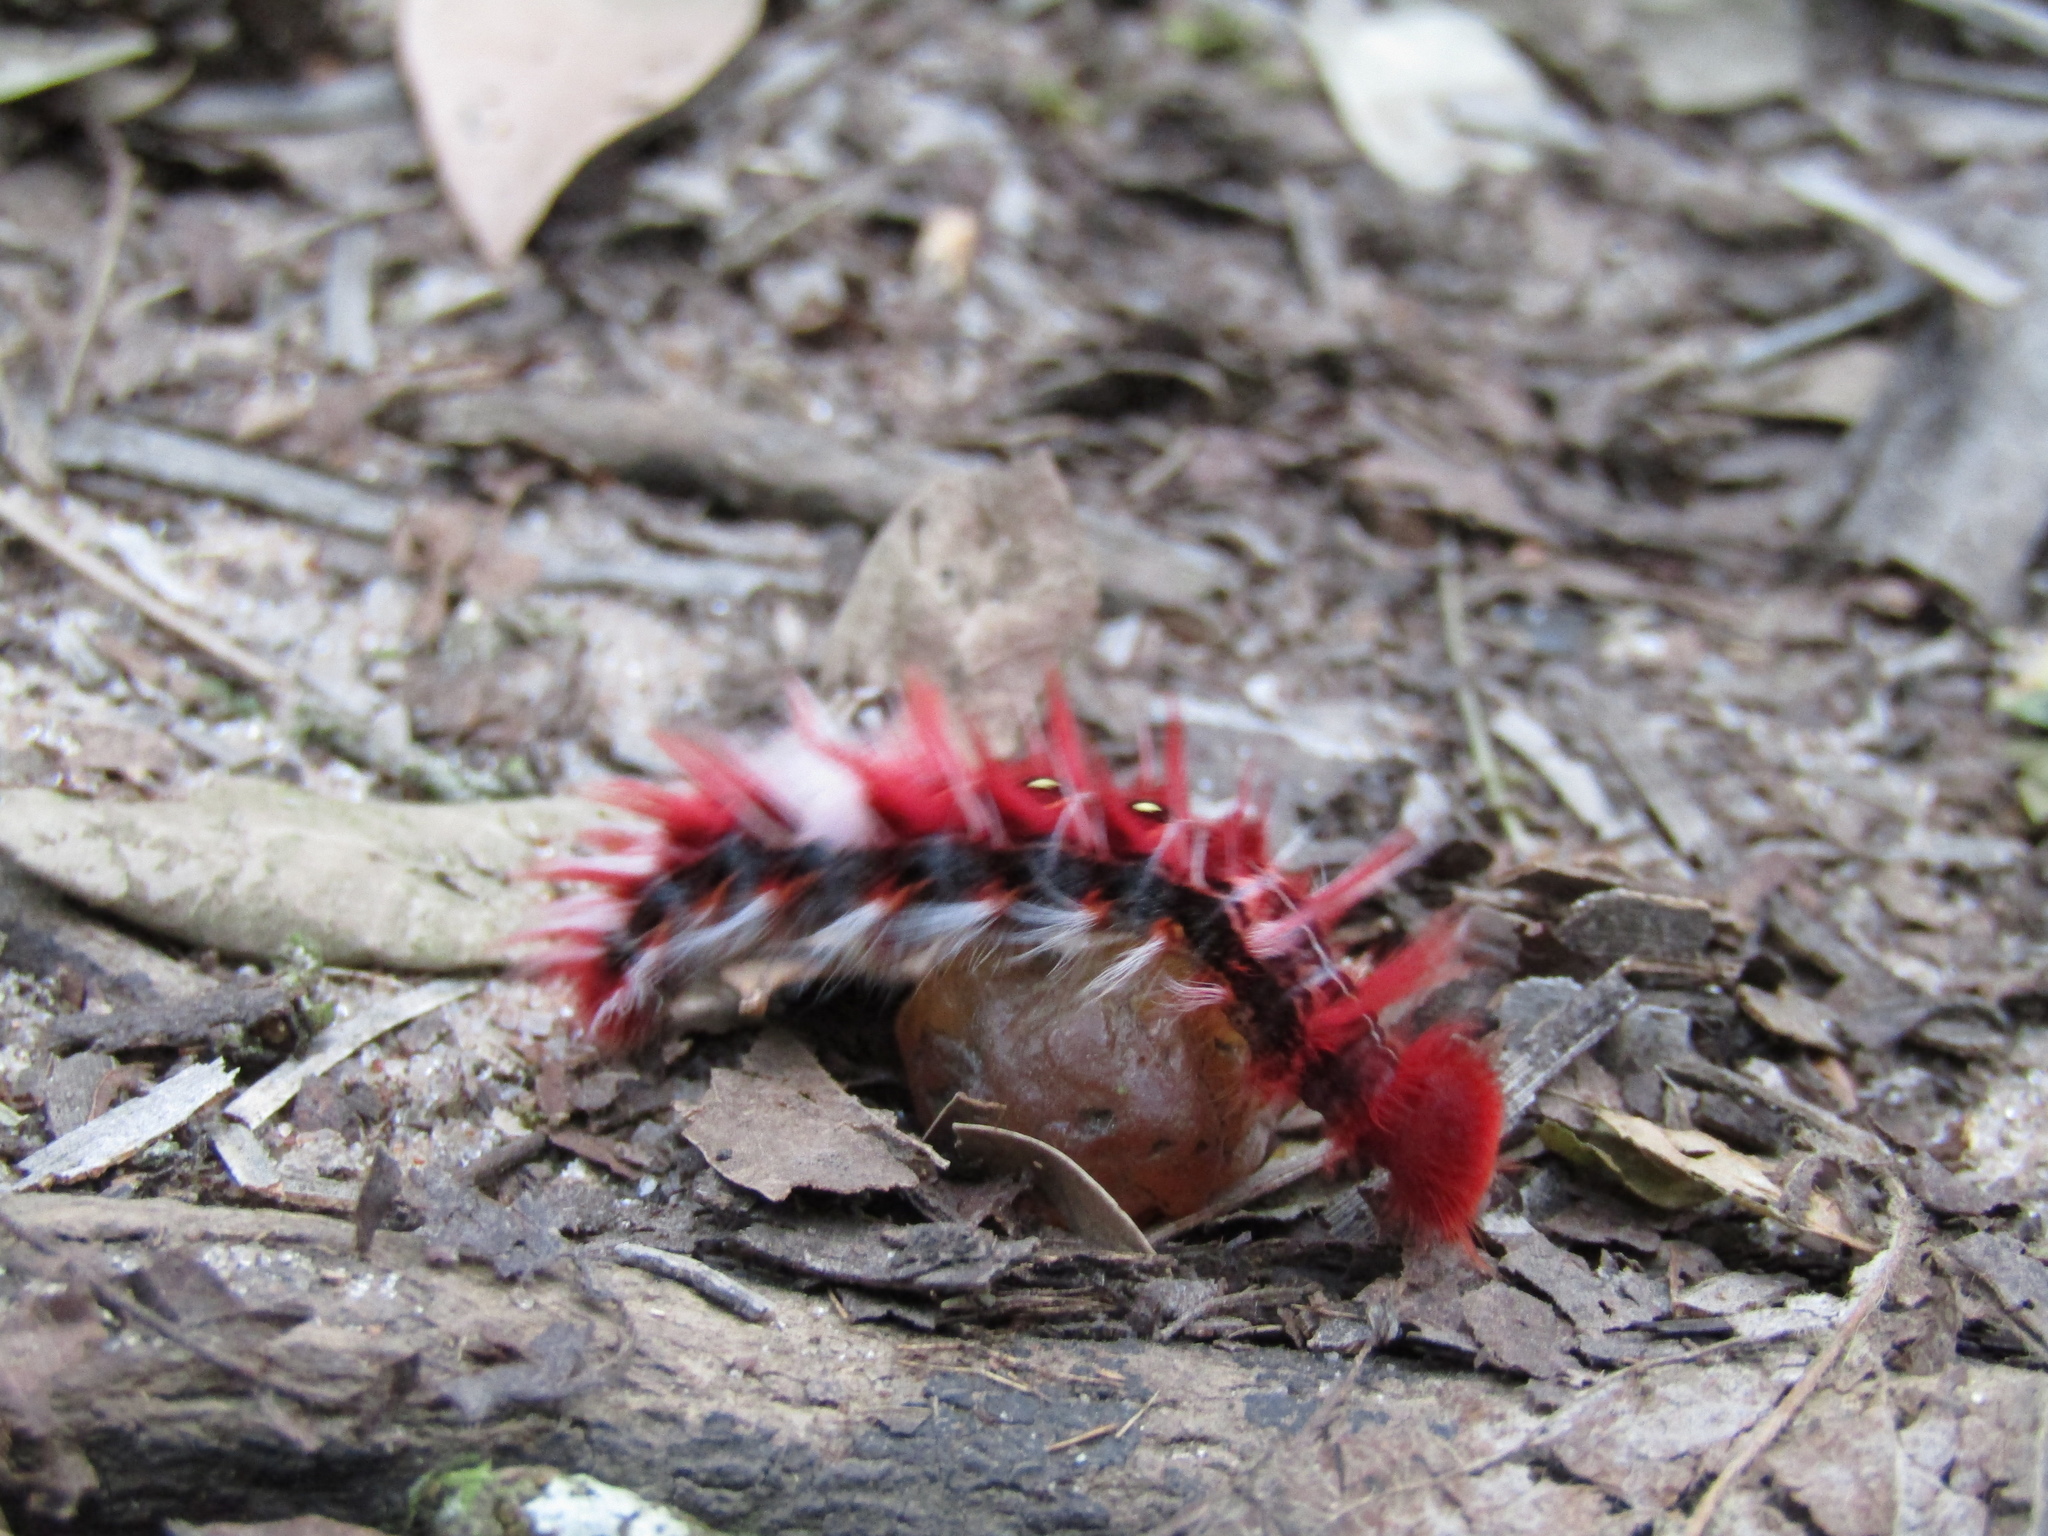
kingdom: Animalia
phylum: Arthropoda
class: Insecta
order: Lepidoptera
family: Nymphalidae
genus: Morpho
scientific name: Morpho epistrophus
